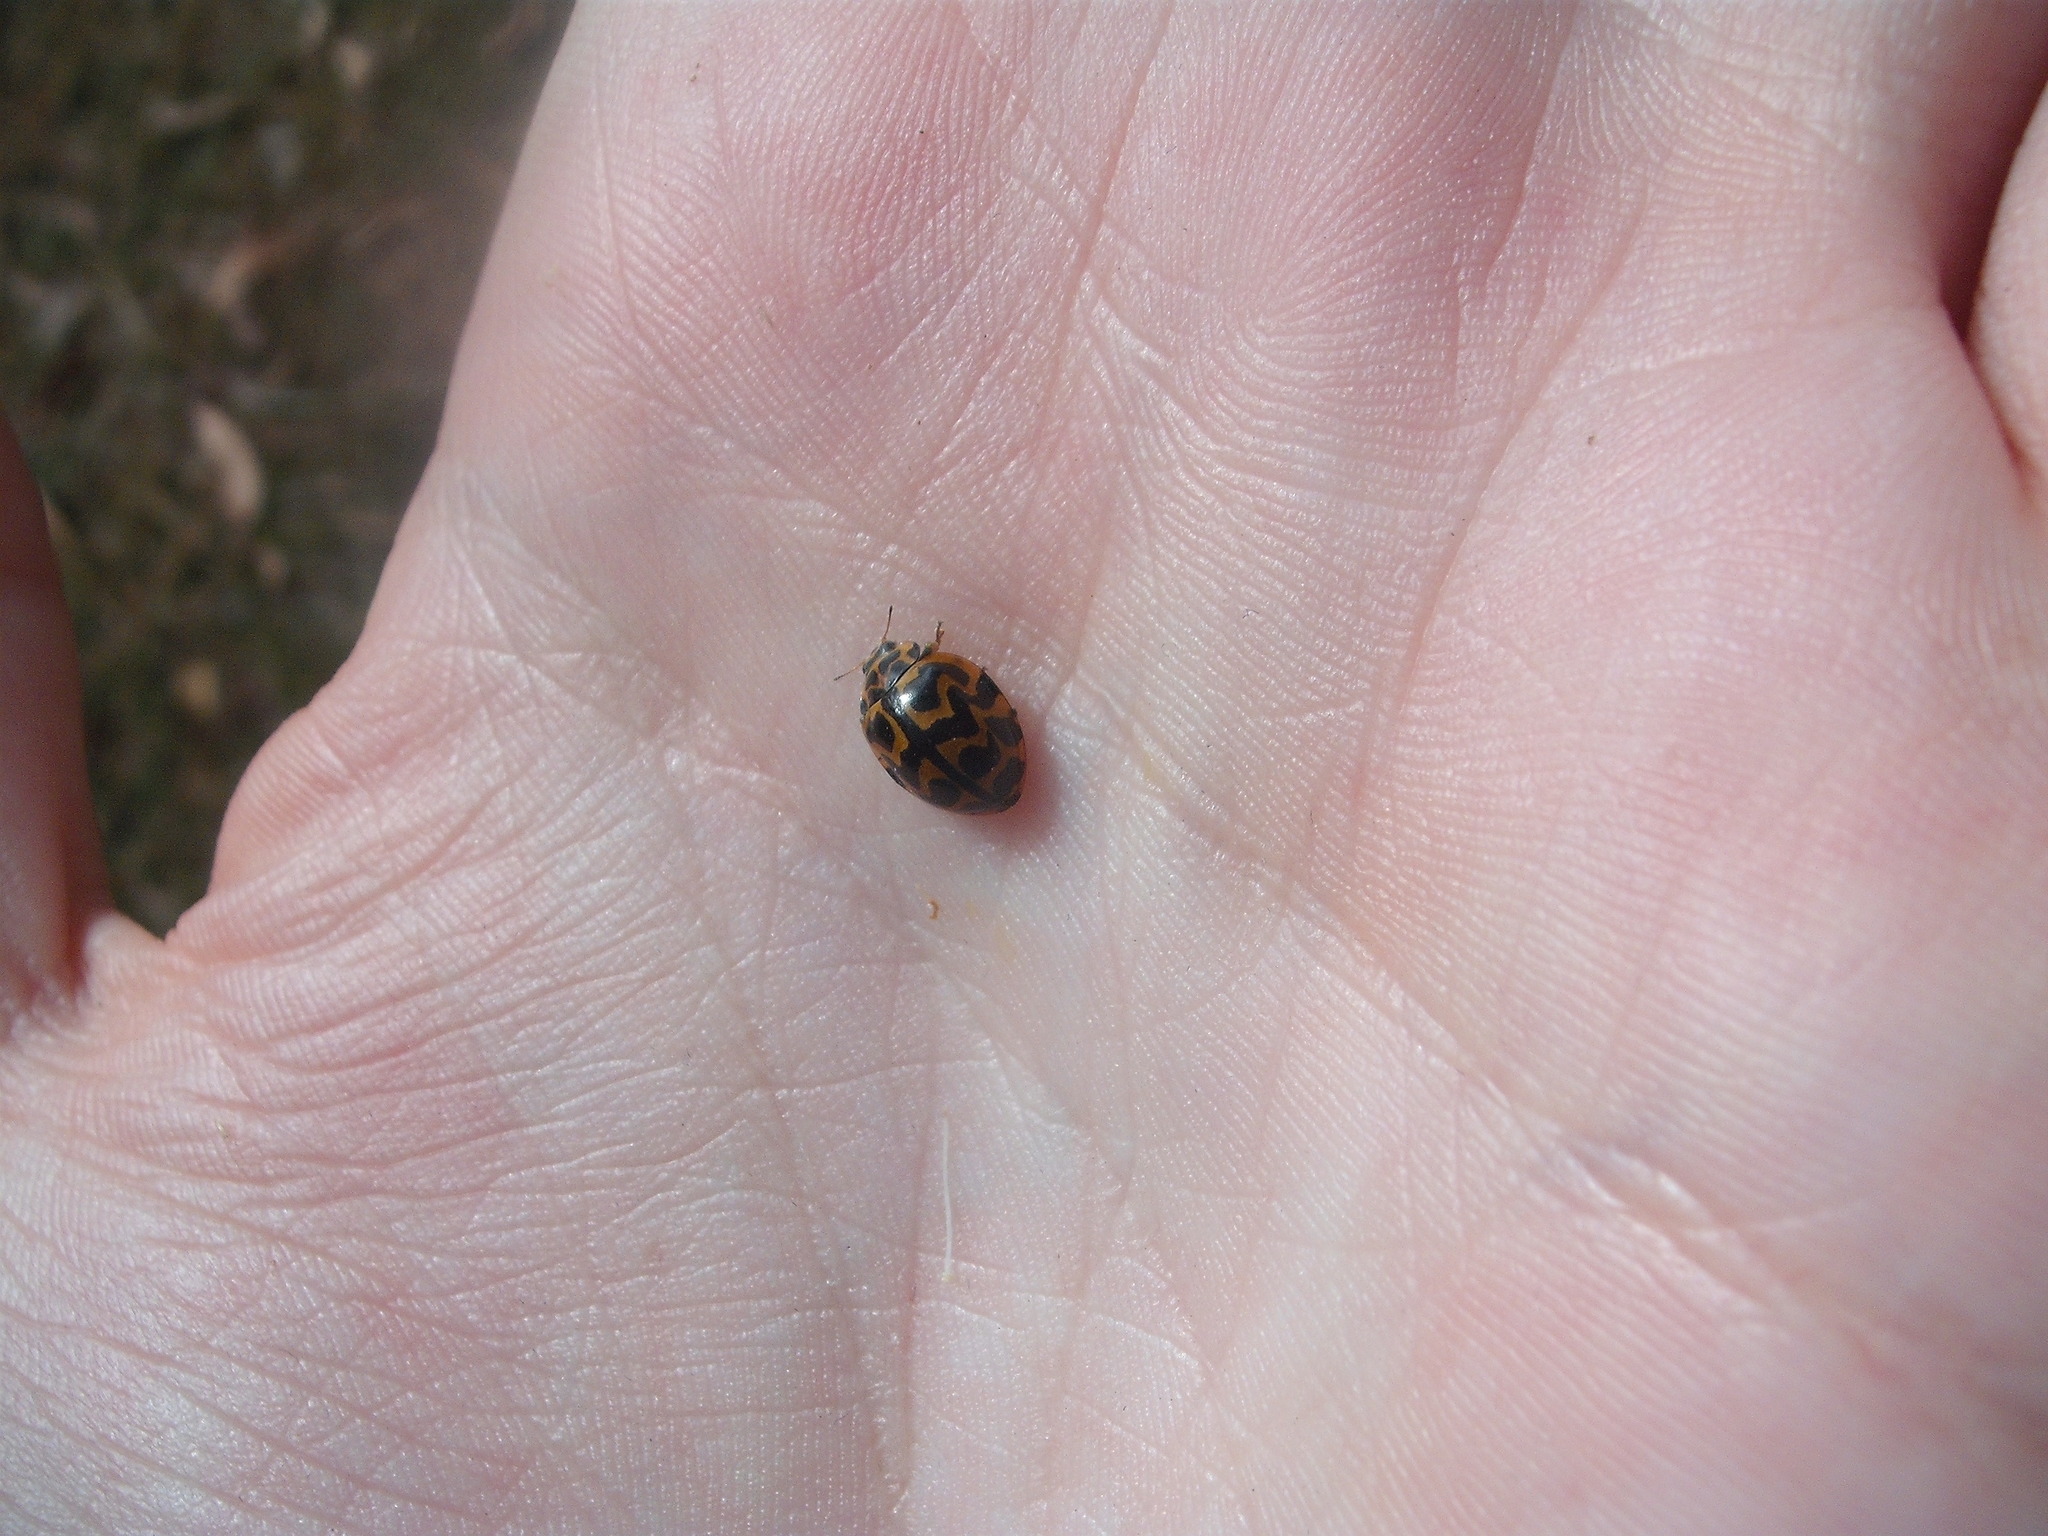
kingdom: Animalia
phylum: Arthropoda
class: Insecta
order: Coleoptera
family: Coccinellidae
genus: Cleobora
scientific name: Cleobora
